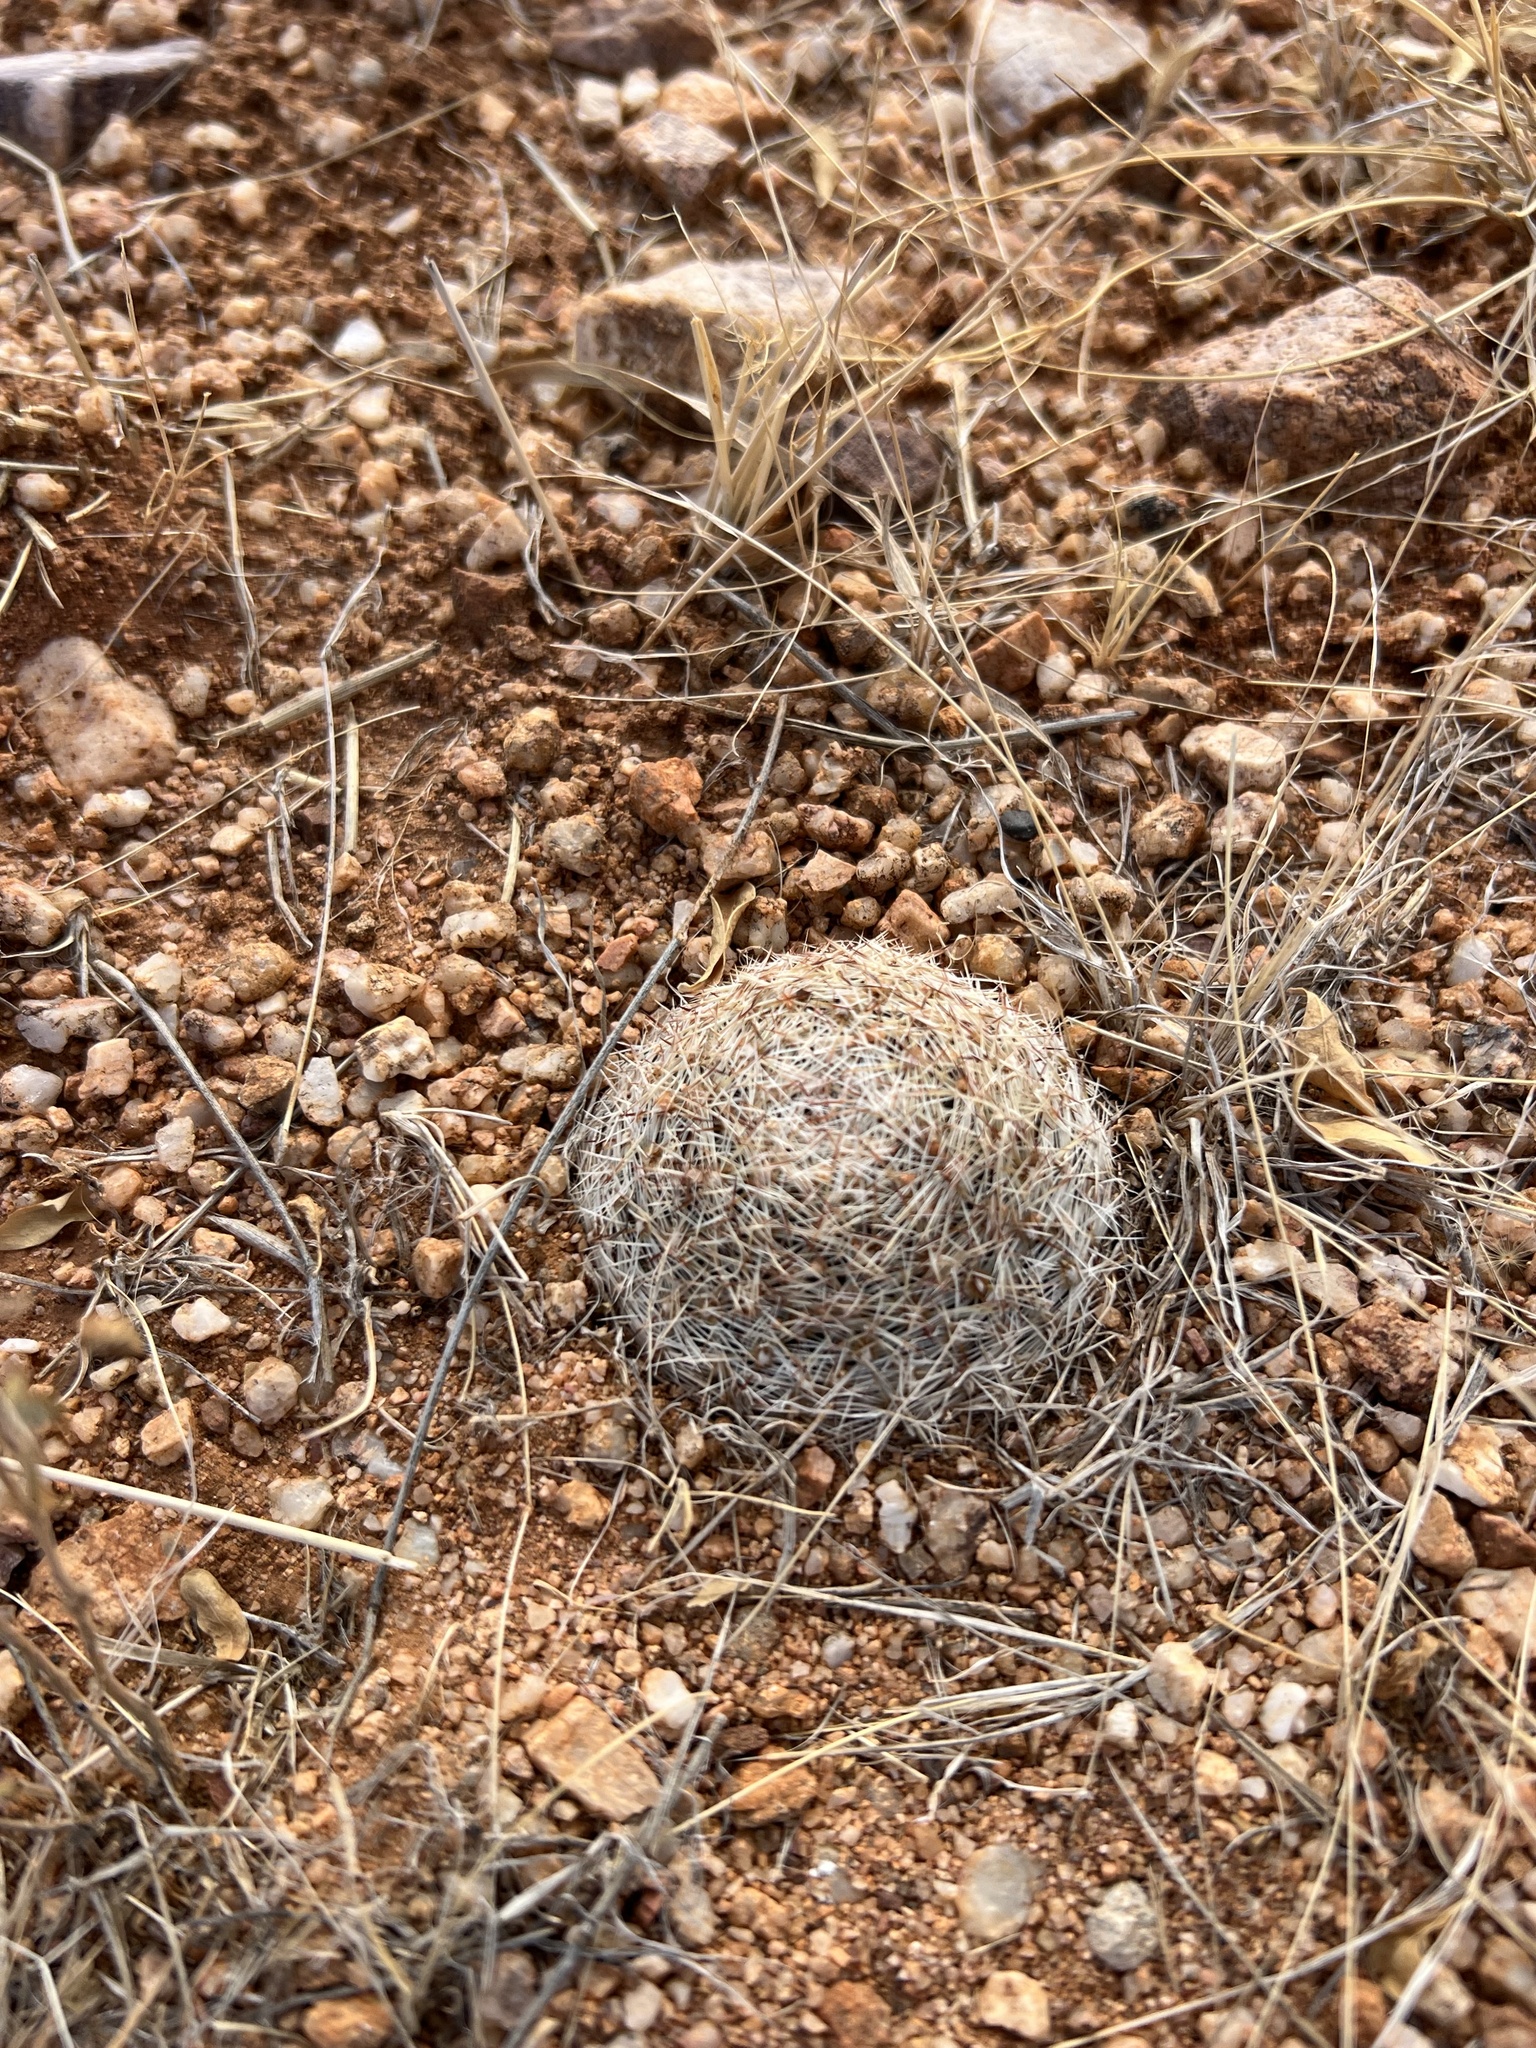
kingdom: Plantae
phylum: Tracheophyta
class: Magnoliopsida
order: Caryophyllales
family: Cactaceae
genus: Pelecyphora
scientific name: Pelecyphora vivipara
